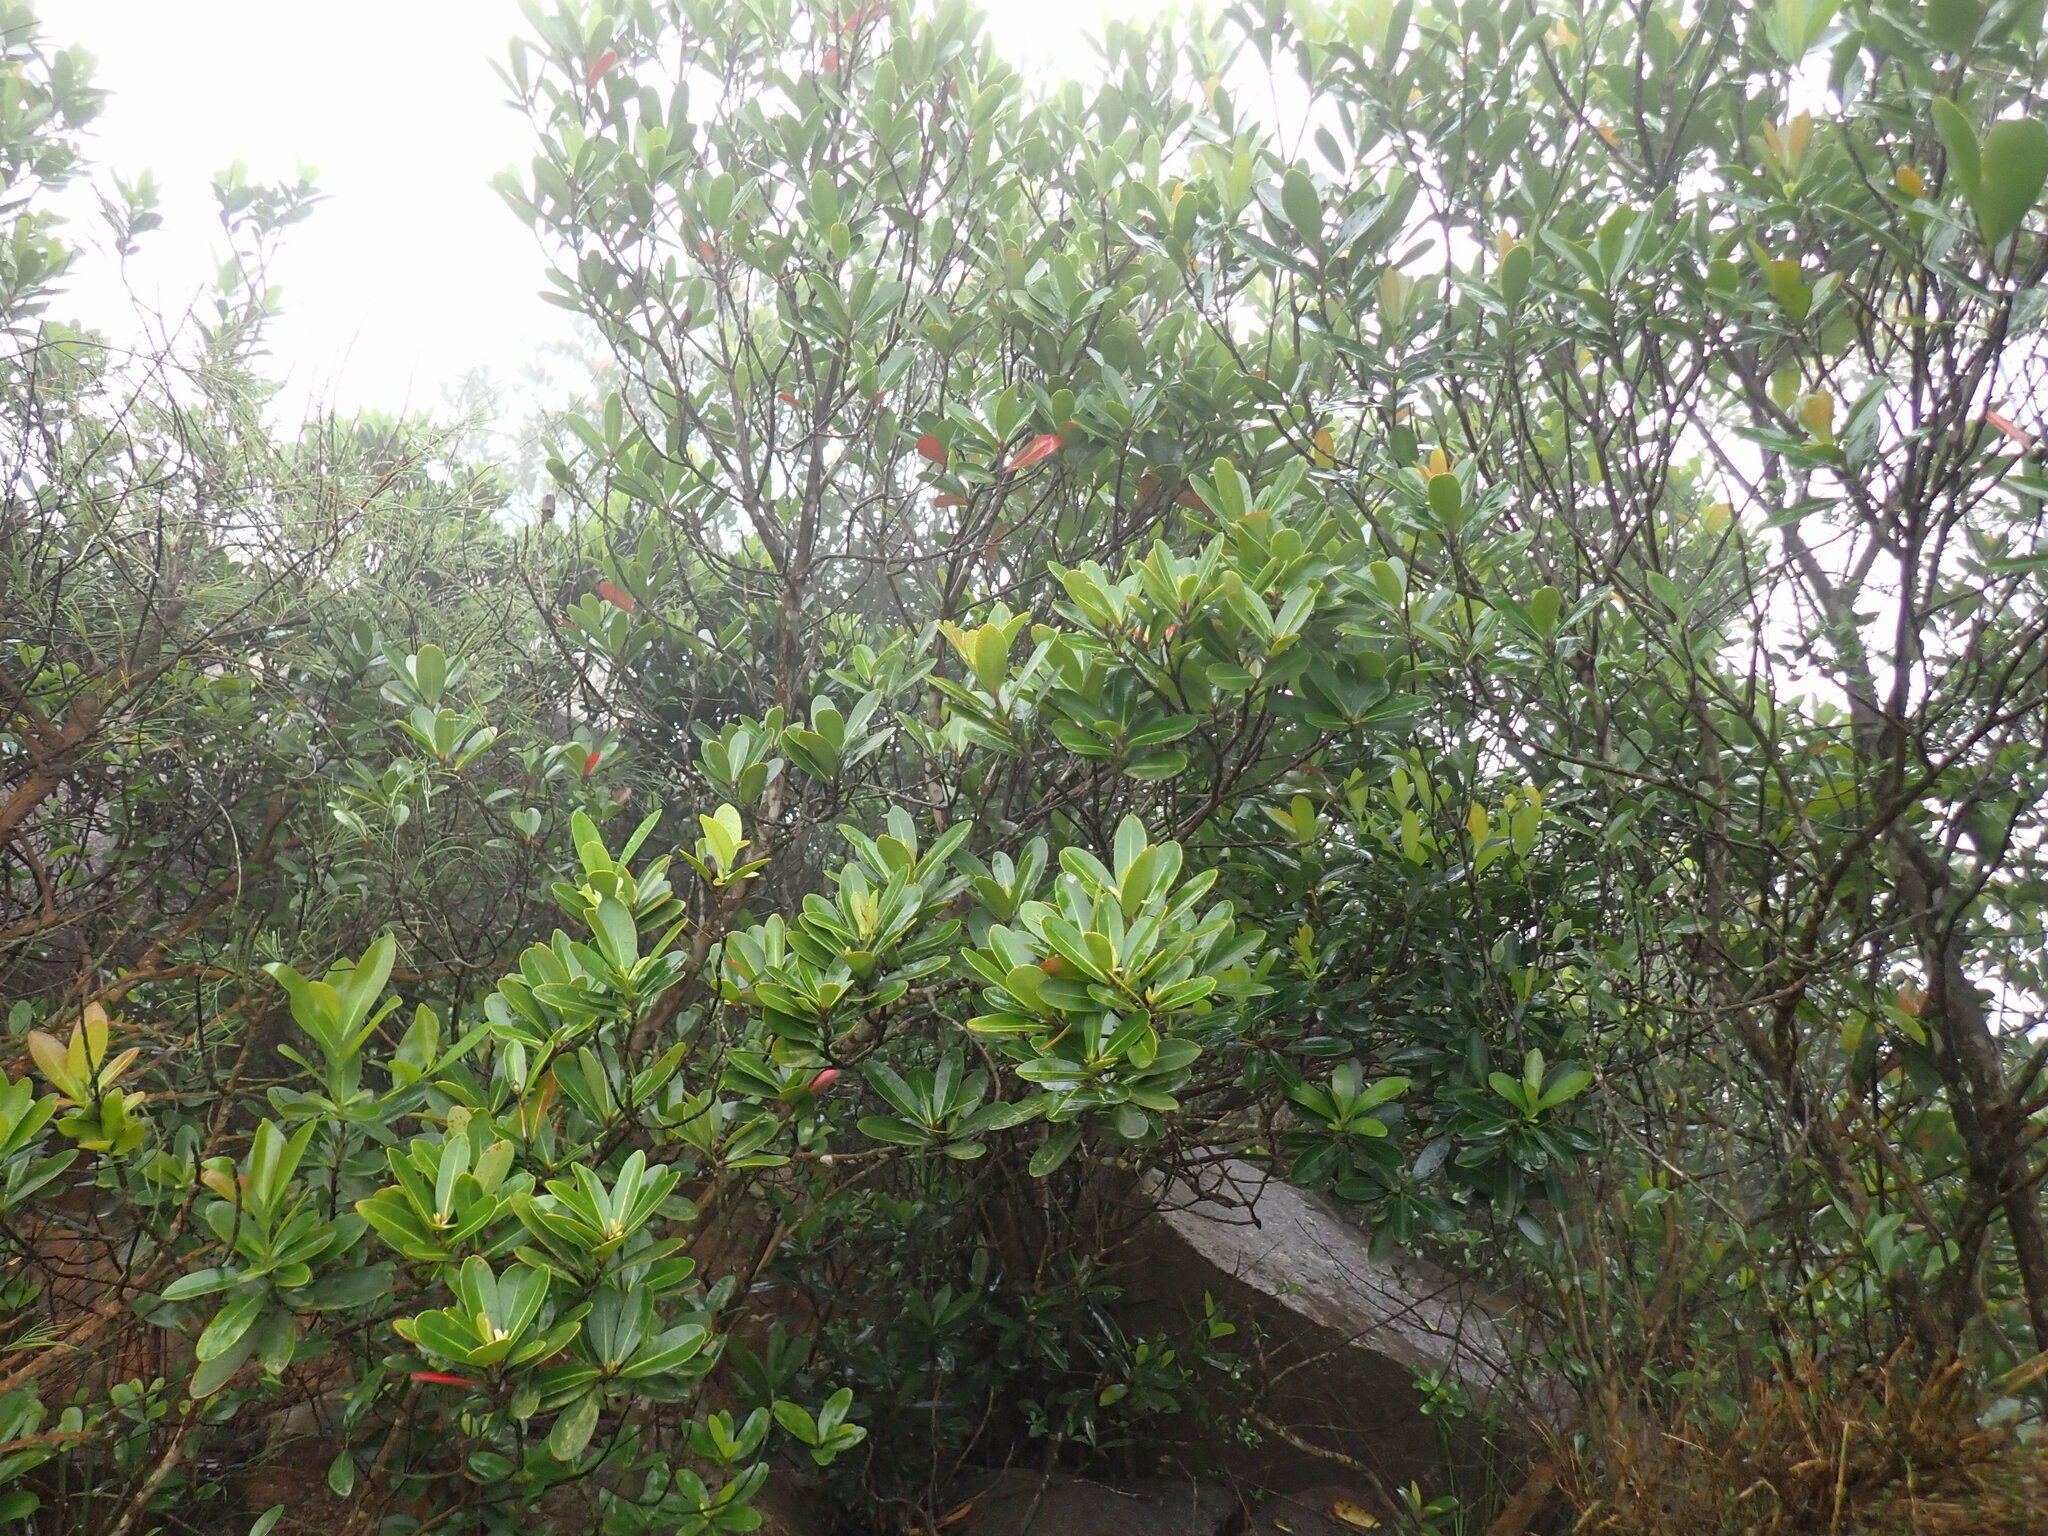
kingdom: Plantae
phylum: Tracheophyta
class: Magnoliopsida
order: Ericales
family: Theaceae
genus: Polyspora
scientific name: Polyspora axillaris
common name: Fried egg tree
